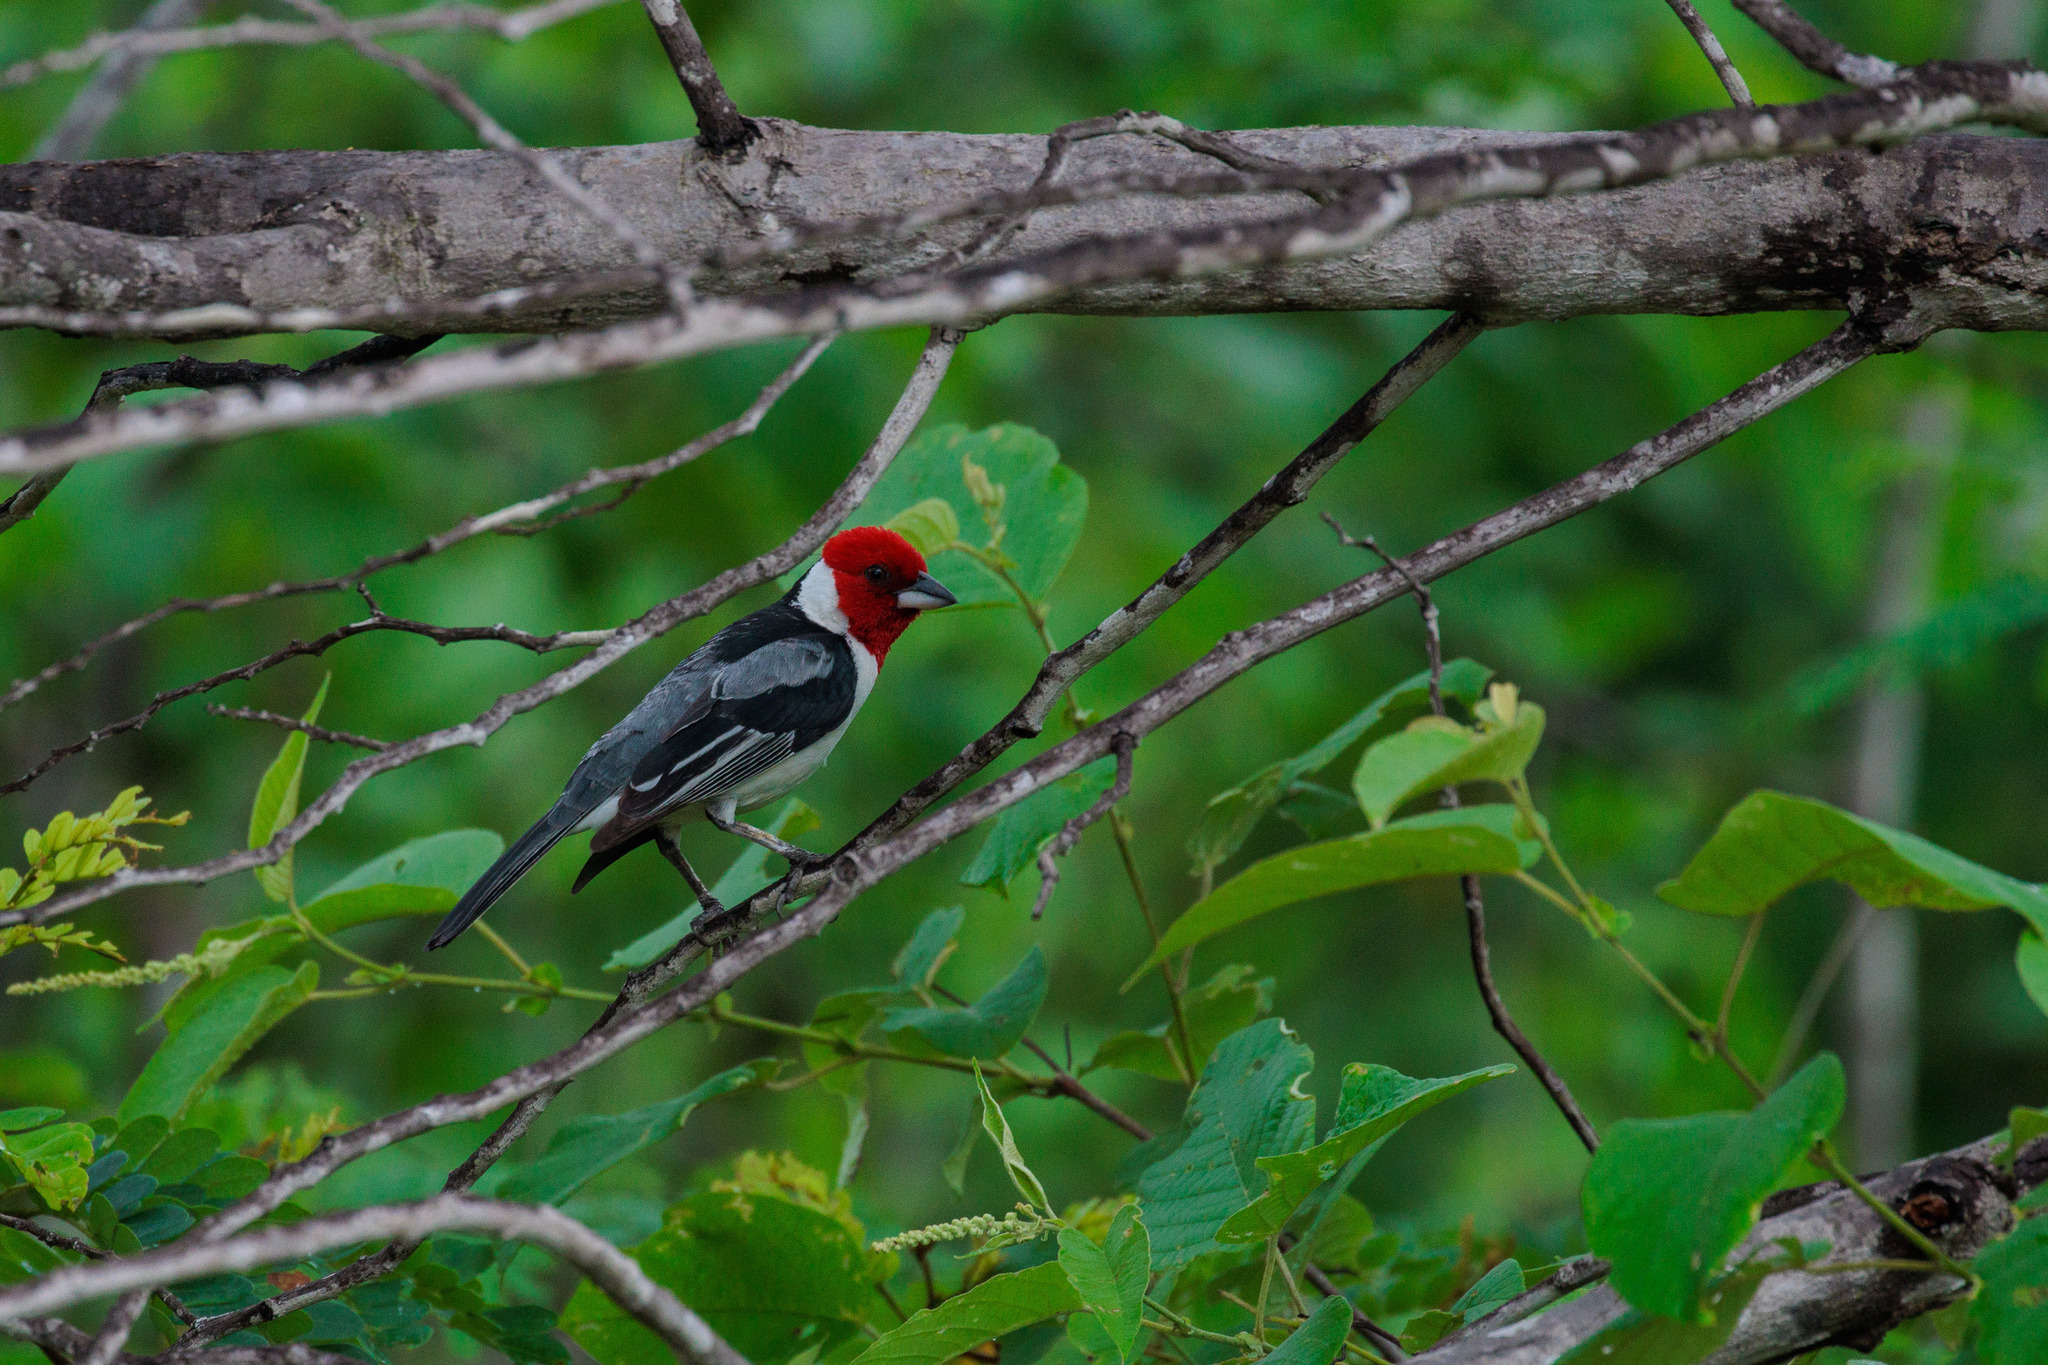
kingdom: Animalia
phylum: Chordata
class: Aves
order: Passeriformes
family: Thraupidae
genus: Paroaria
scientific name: Paroaria dominicana
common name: Red-cowled cardinal
